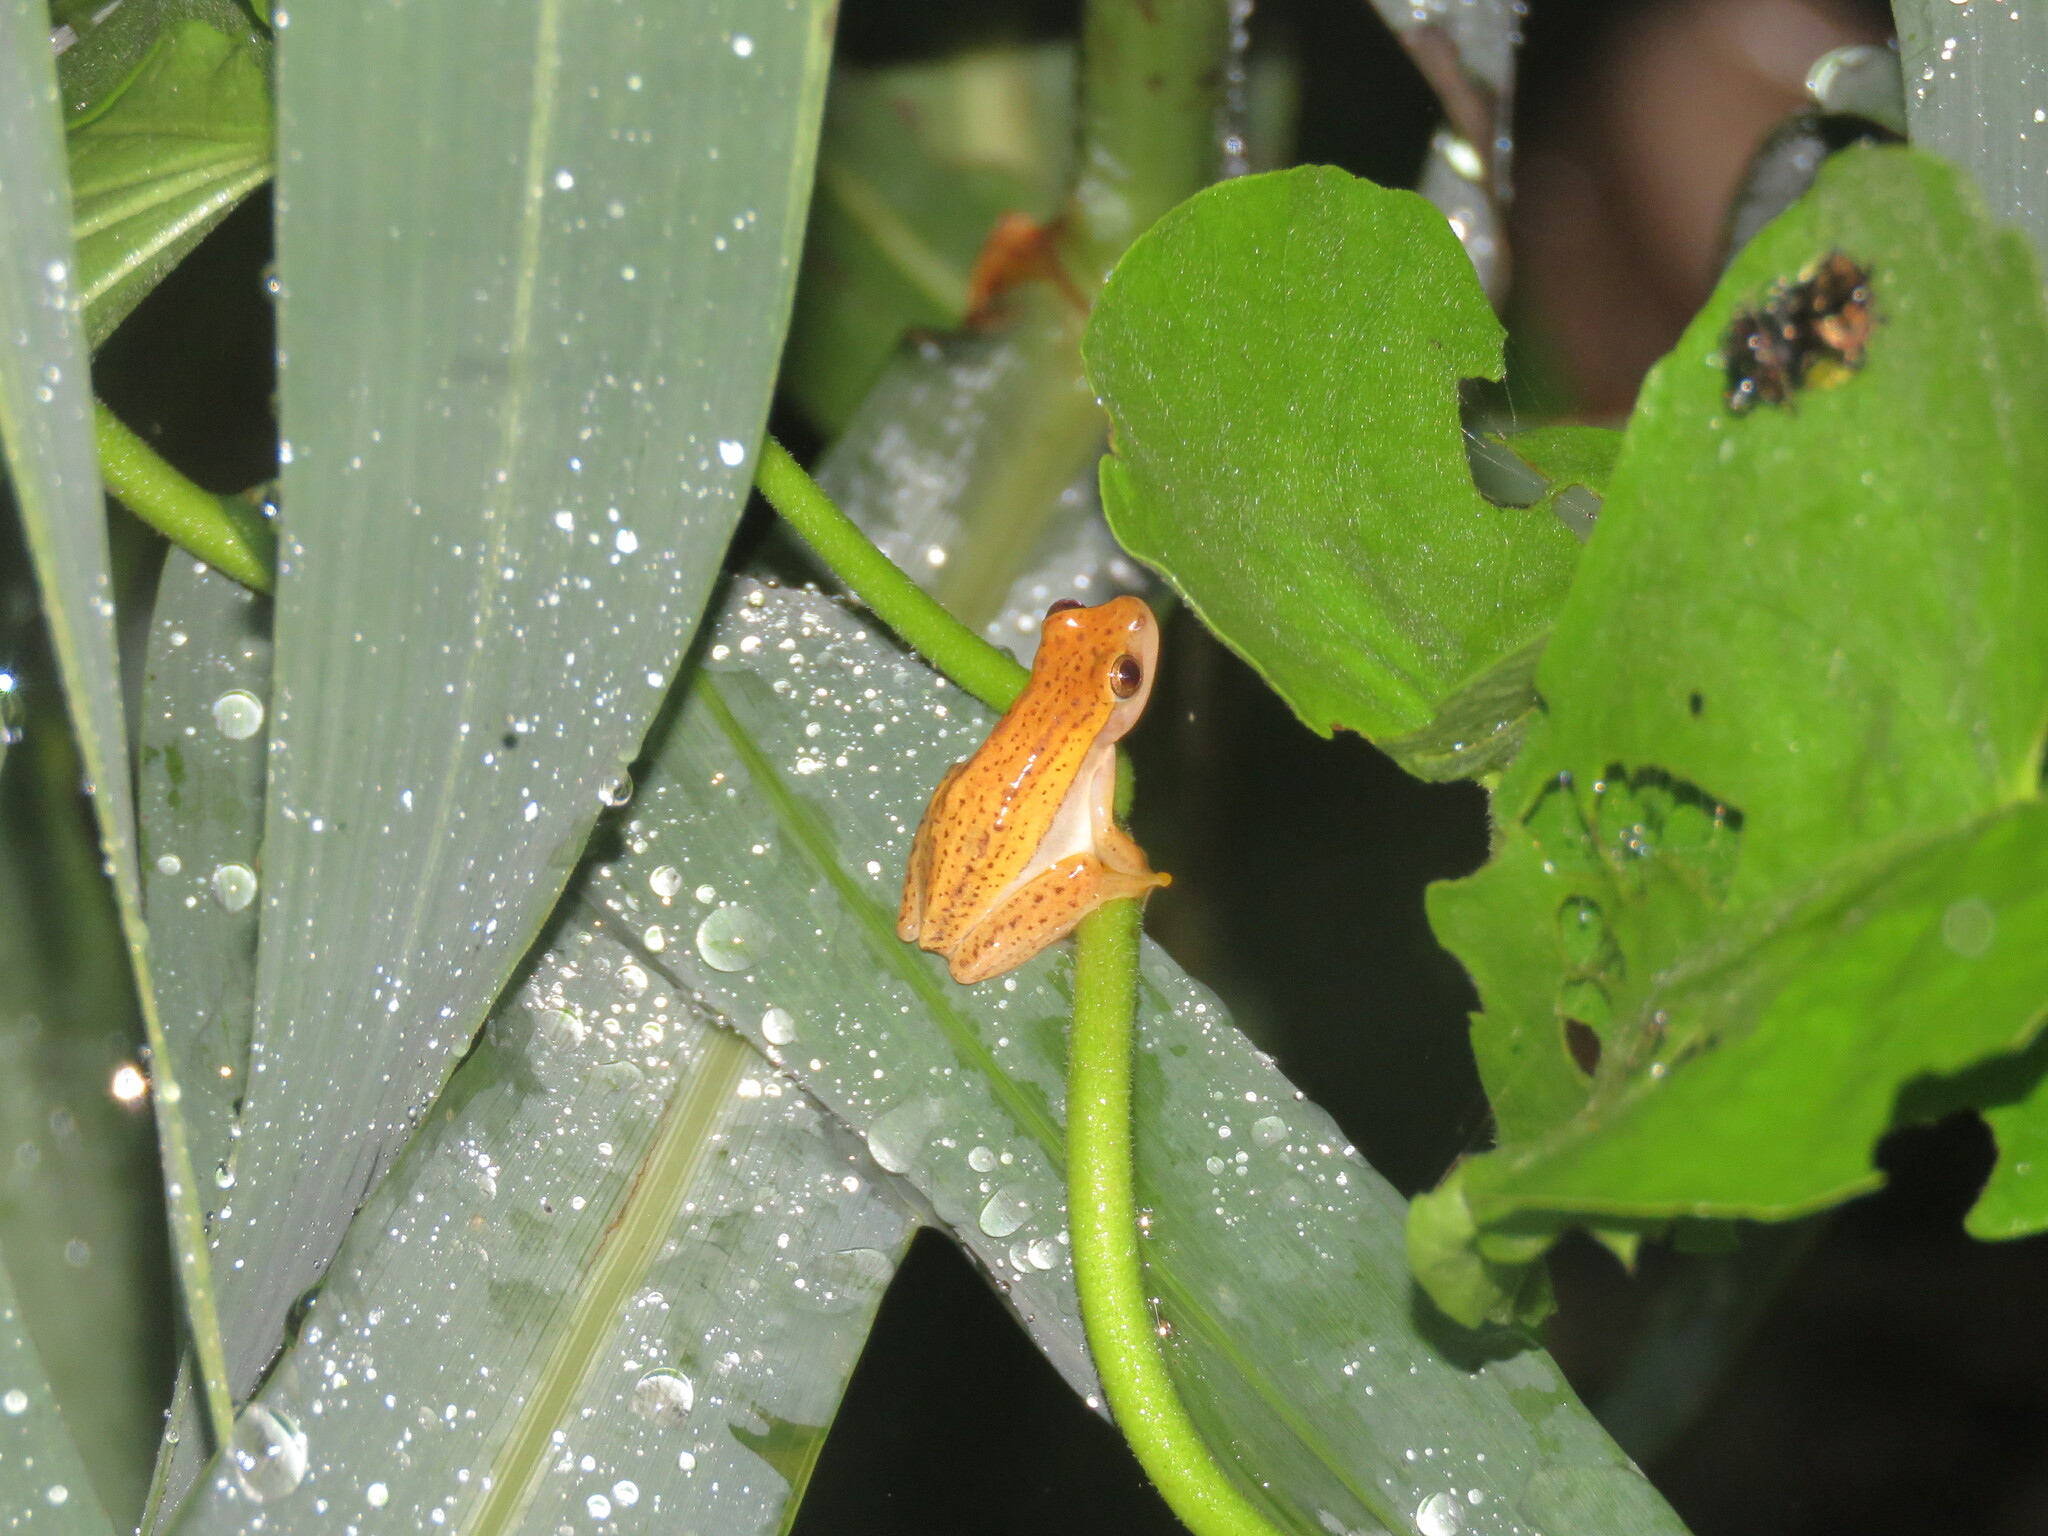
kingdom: Animalia
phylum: Chordata
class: Amphibia
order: Anura
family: Hylidae
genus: Dendropsophus
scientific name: Dendropsophus walfordi
